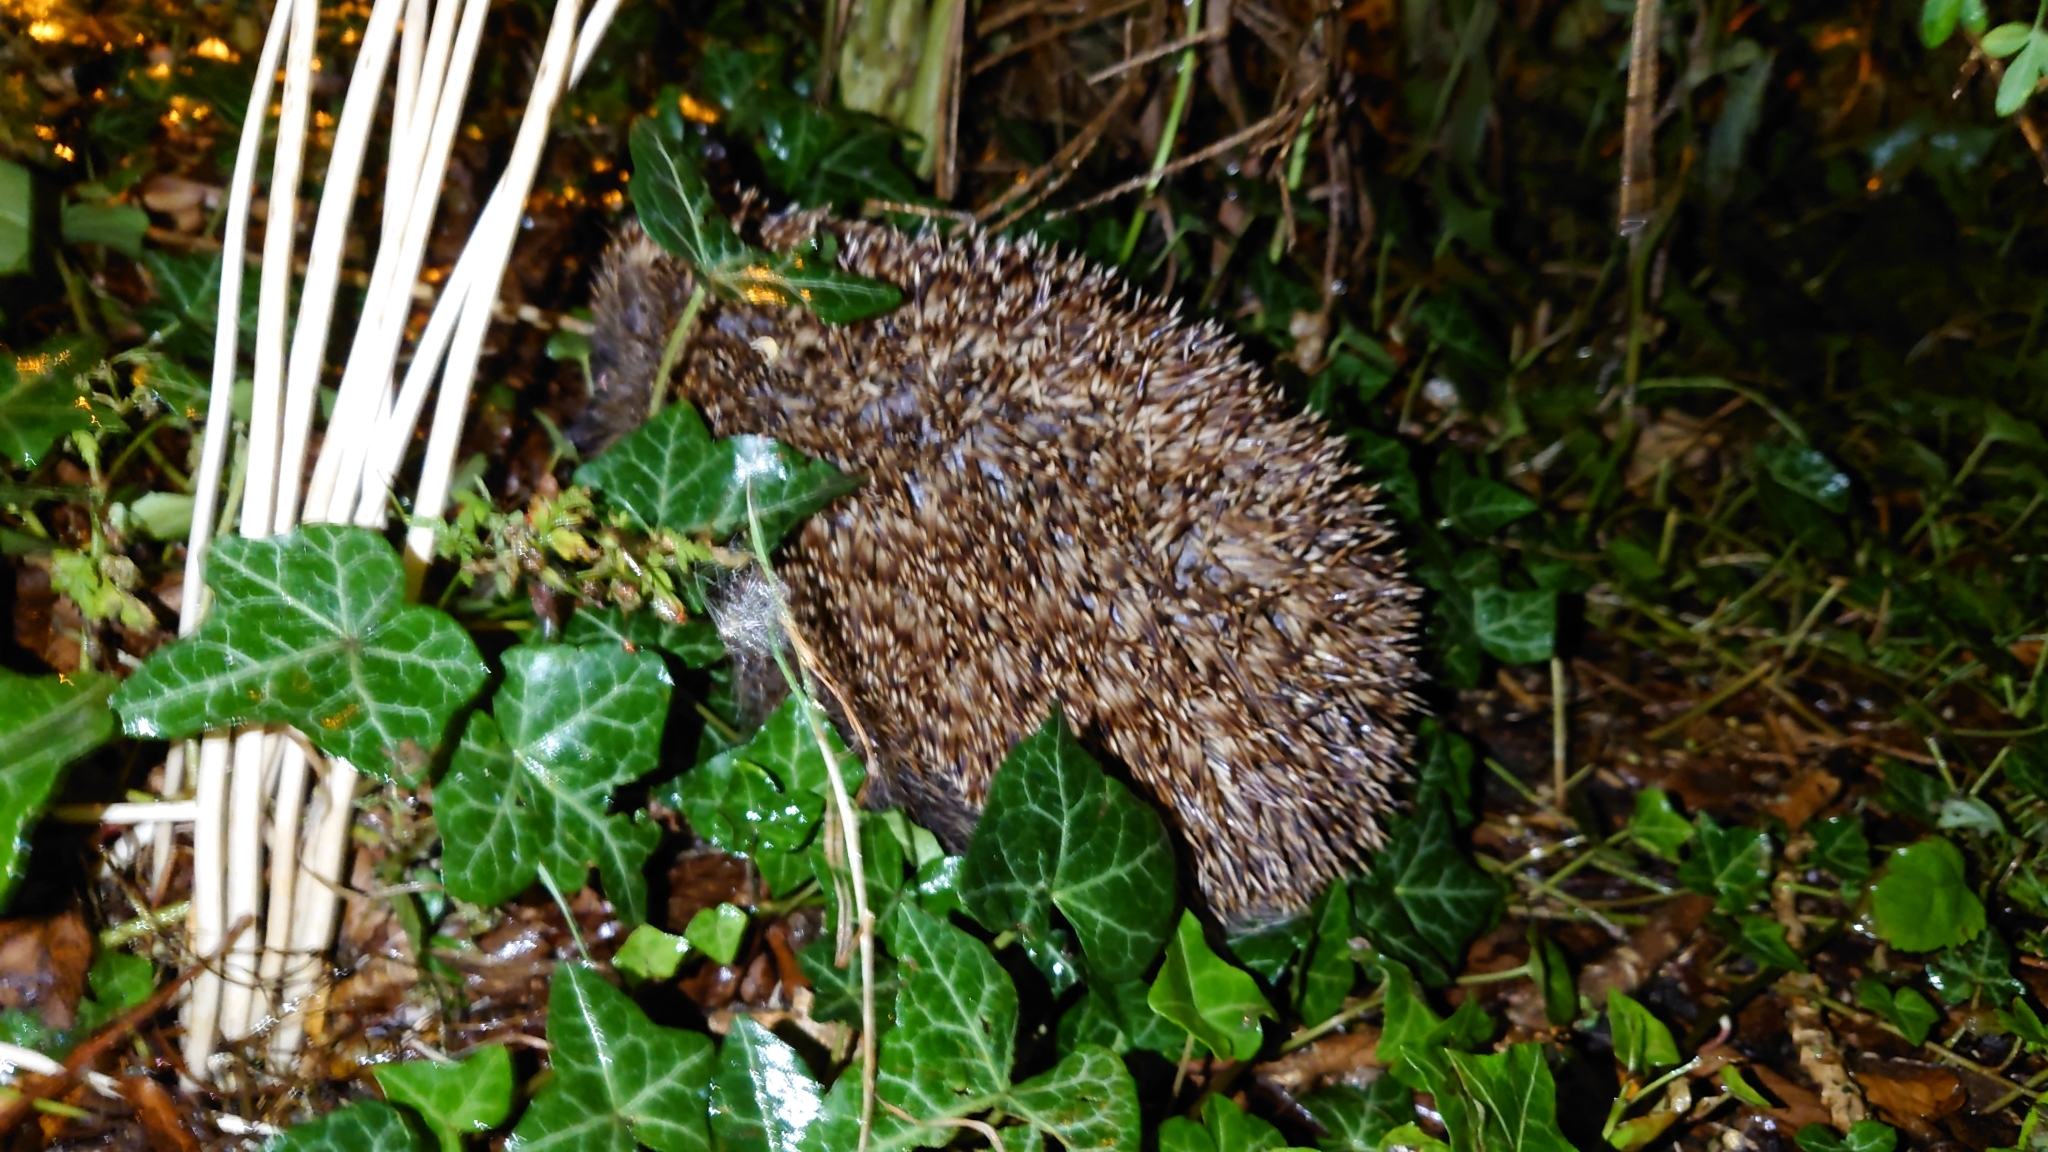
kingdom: Animalia
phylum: Chordata
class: Mammalia
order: Erinaceomorpha
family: Erinaceidae
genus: Erinaceus
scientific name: Erinaceus europaeus
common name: West european hedgehog
